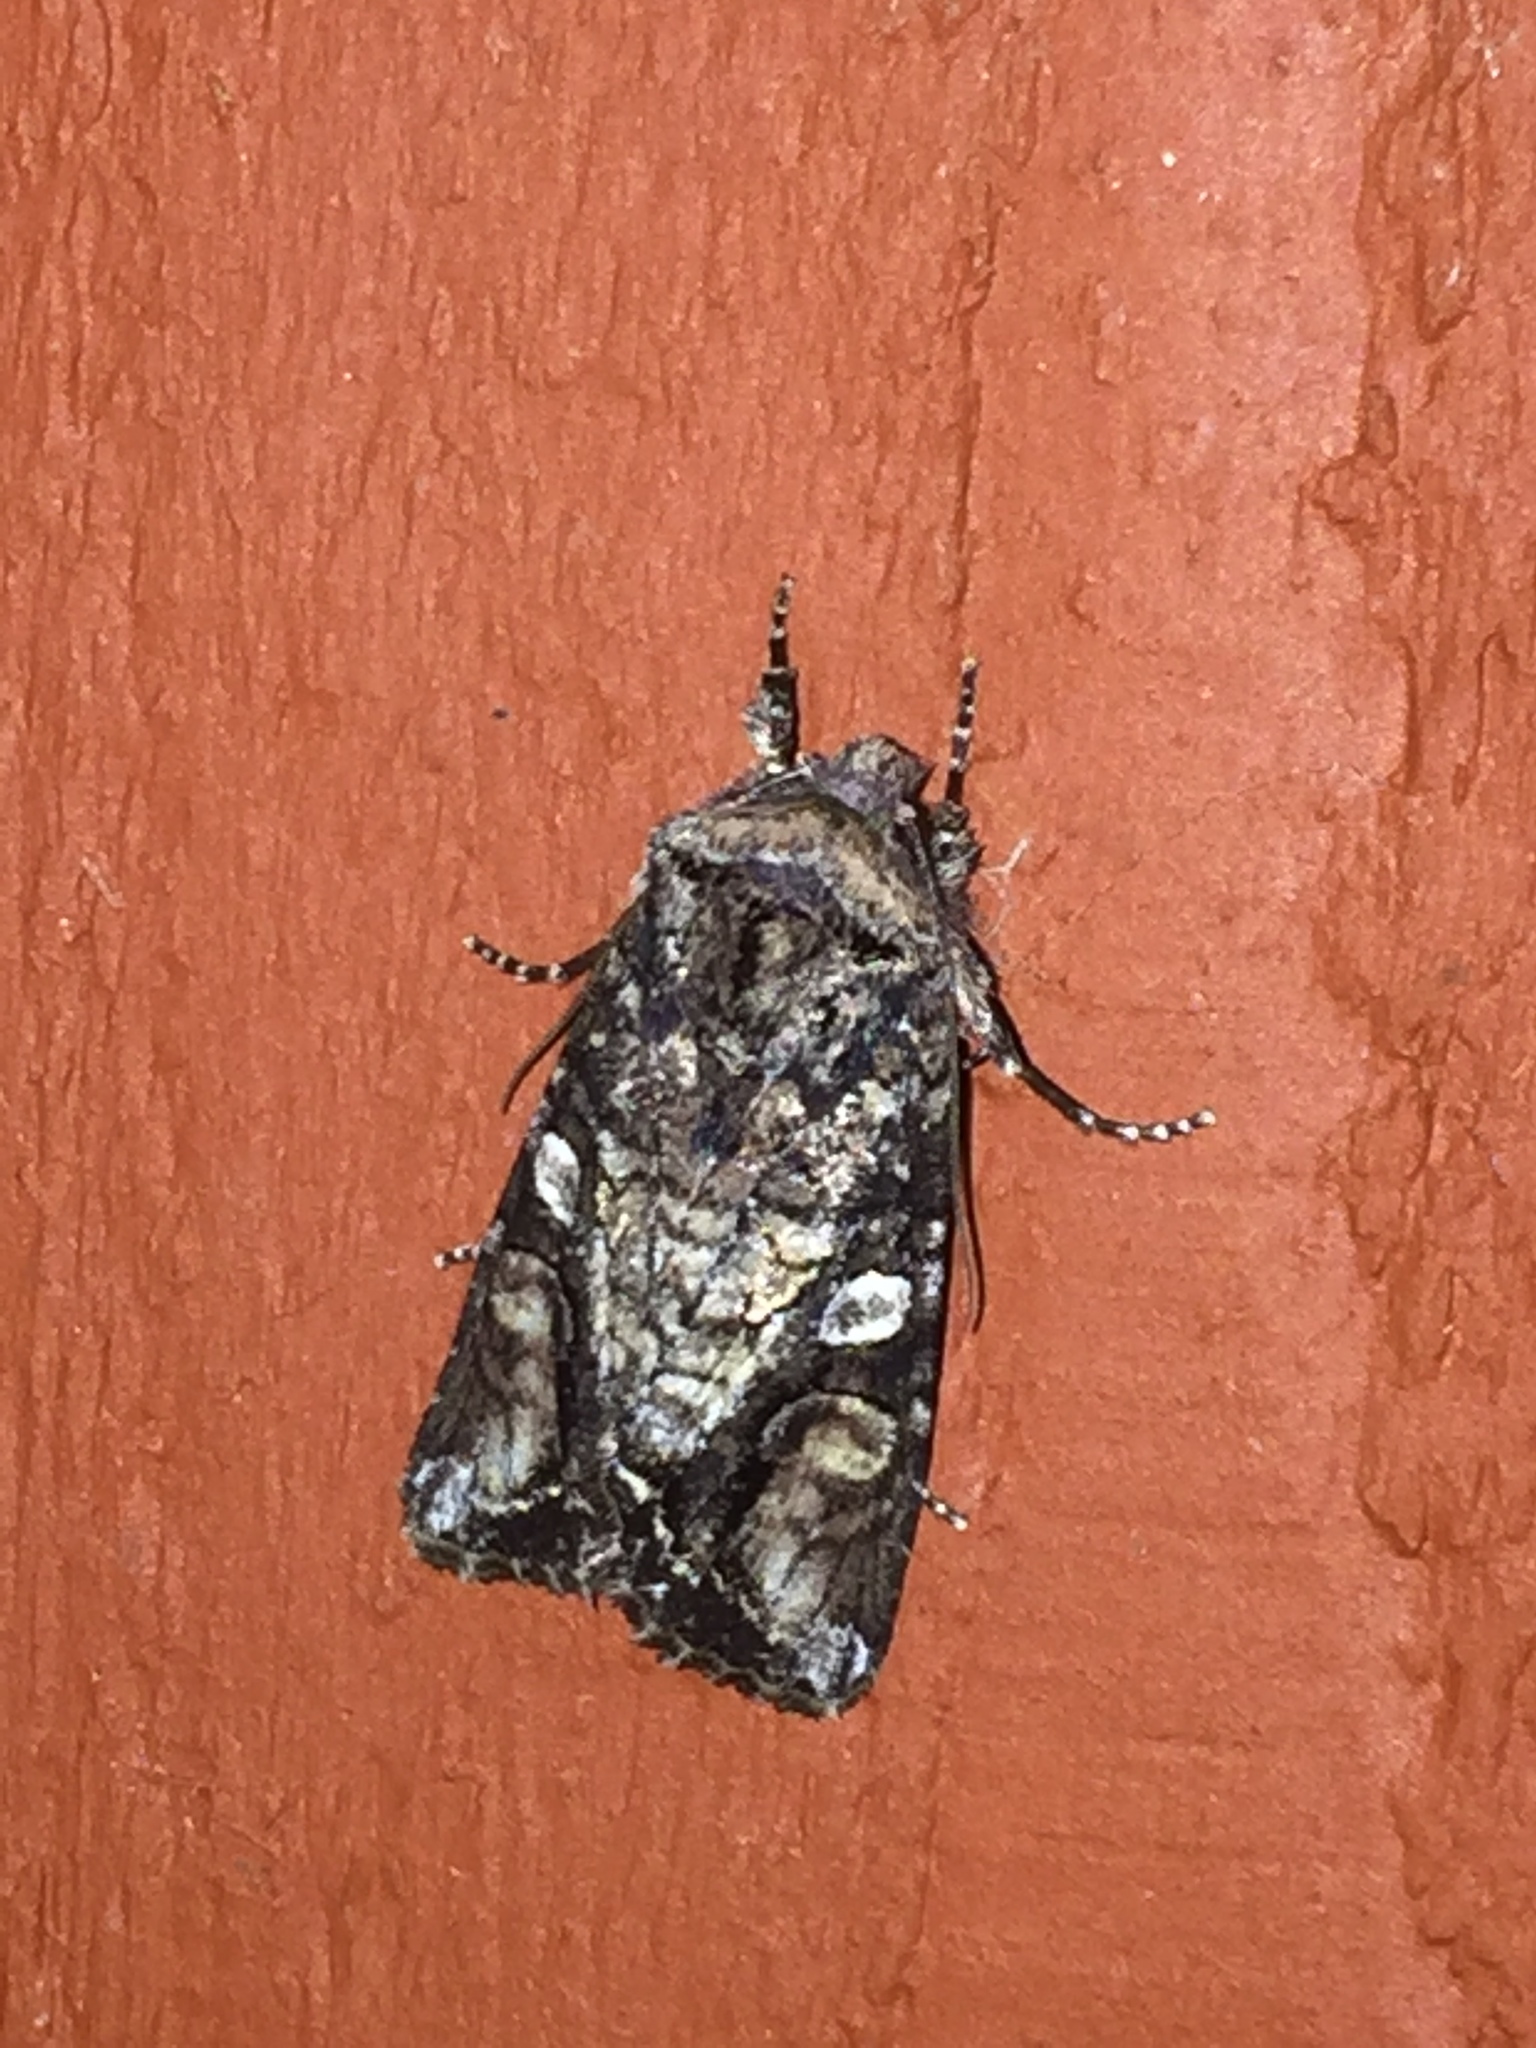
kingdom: Animalia
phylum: Arthropoda
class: Insecta
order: Lepidoptera
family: Noctuidae
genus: Egira
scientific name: Egira perlubens
